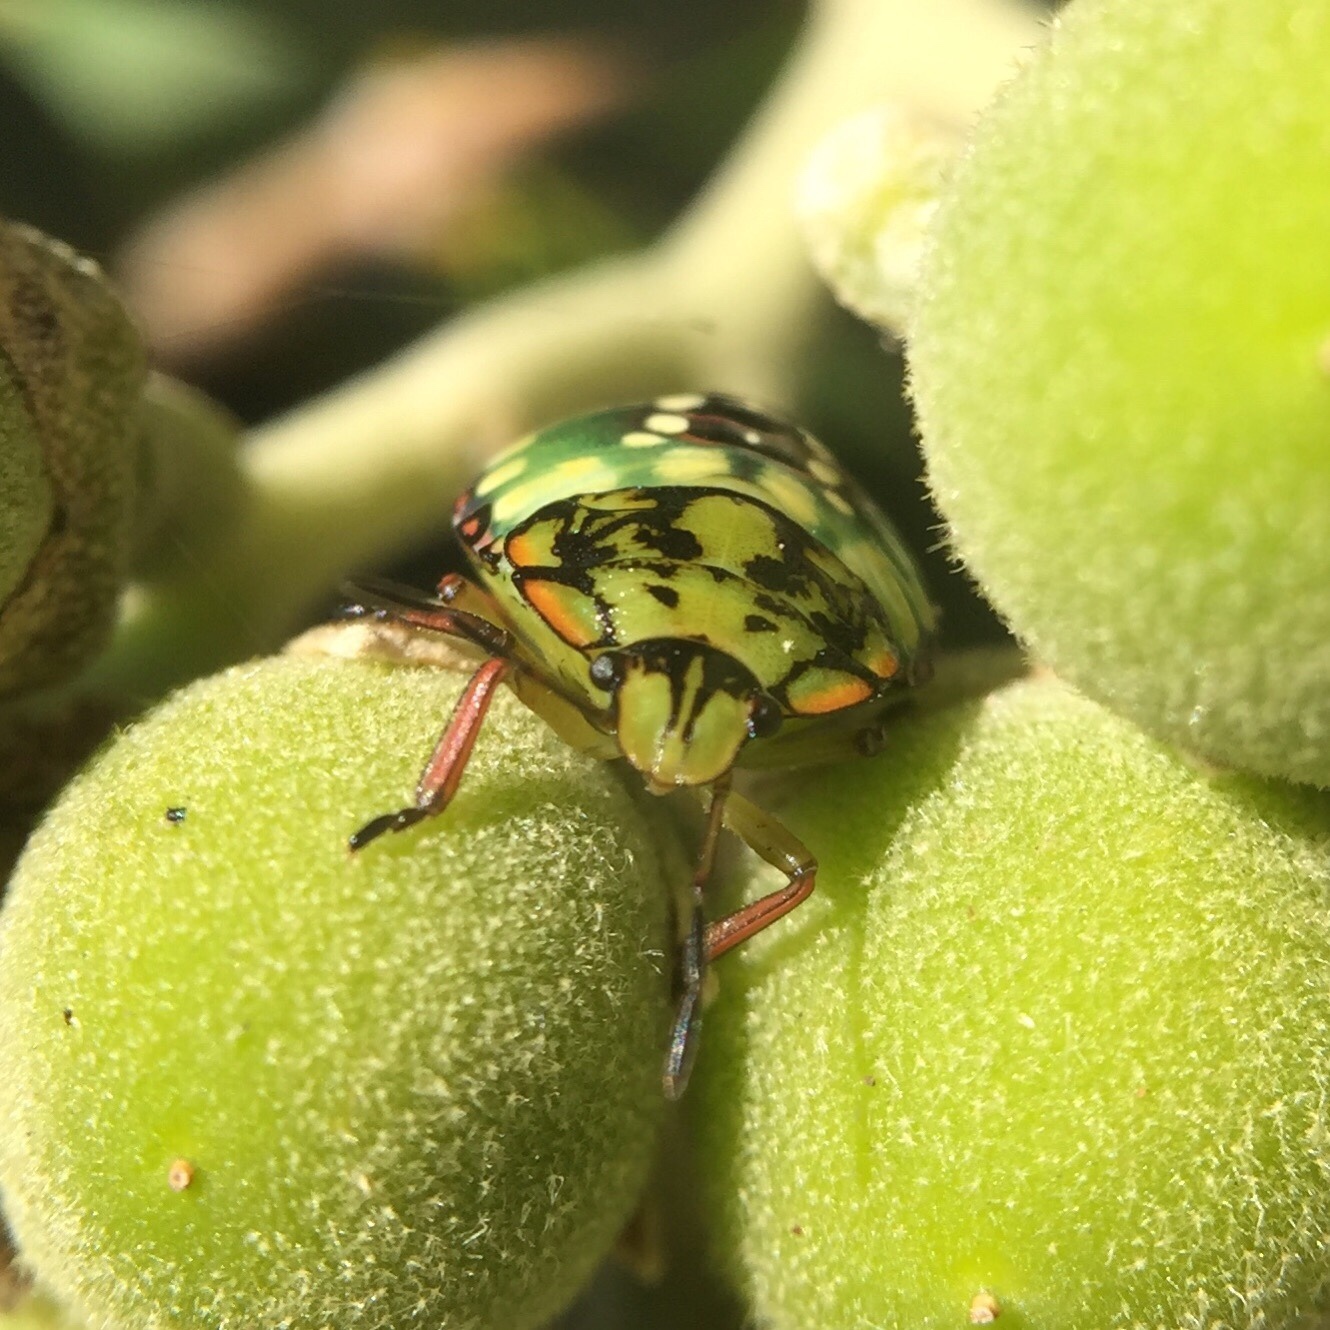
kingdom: Animalia
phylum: Arthropoda
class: Insecta
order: Hemiptera
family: Pentatomidae
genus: Nezara
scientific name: Nezara viridula
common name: Southern green stink bug
